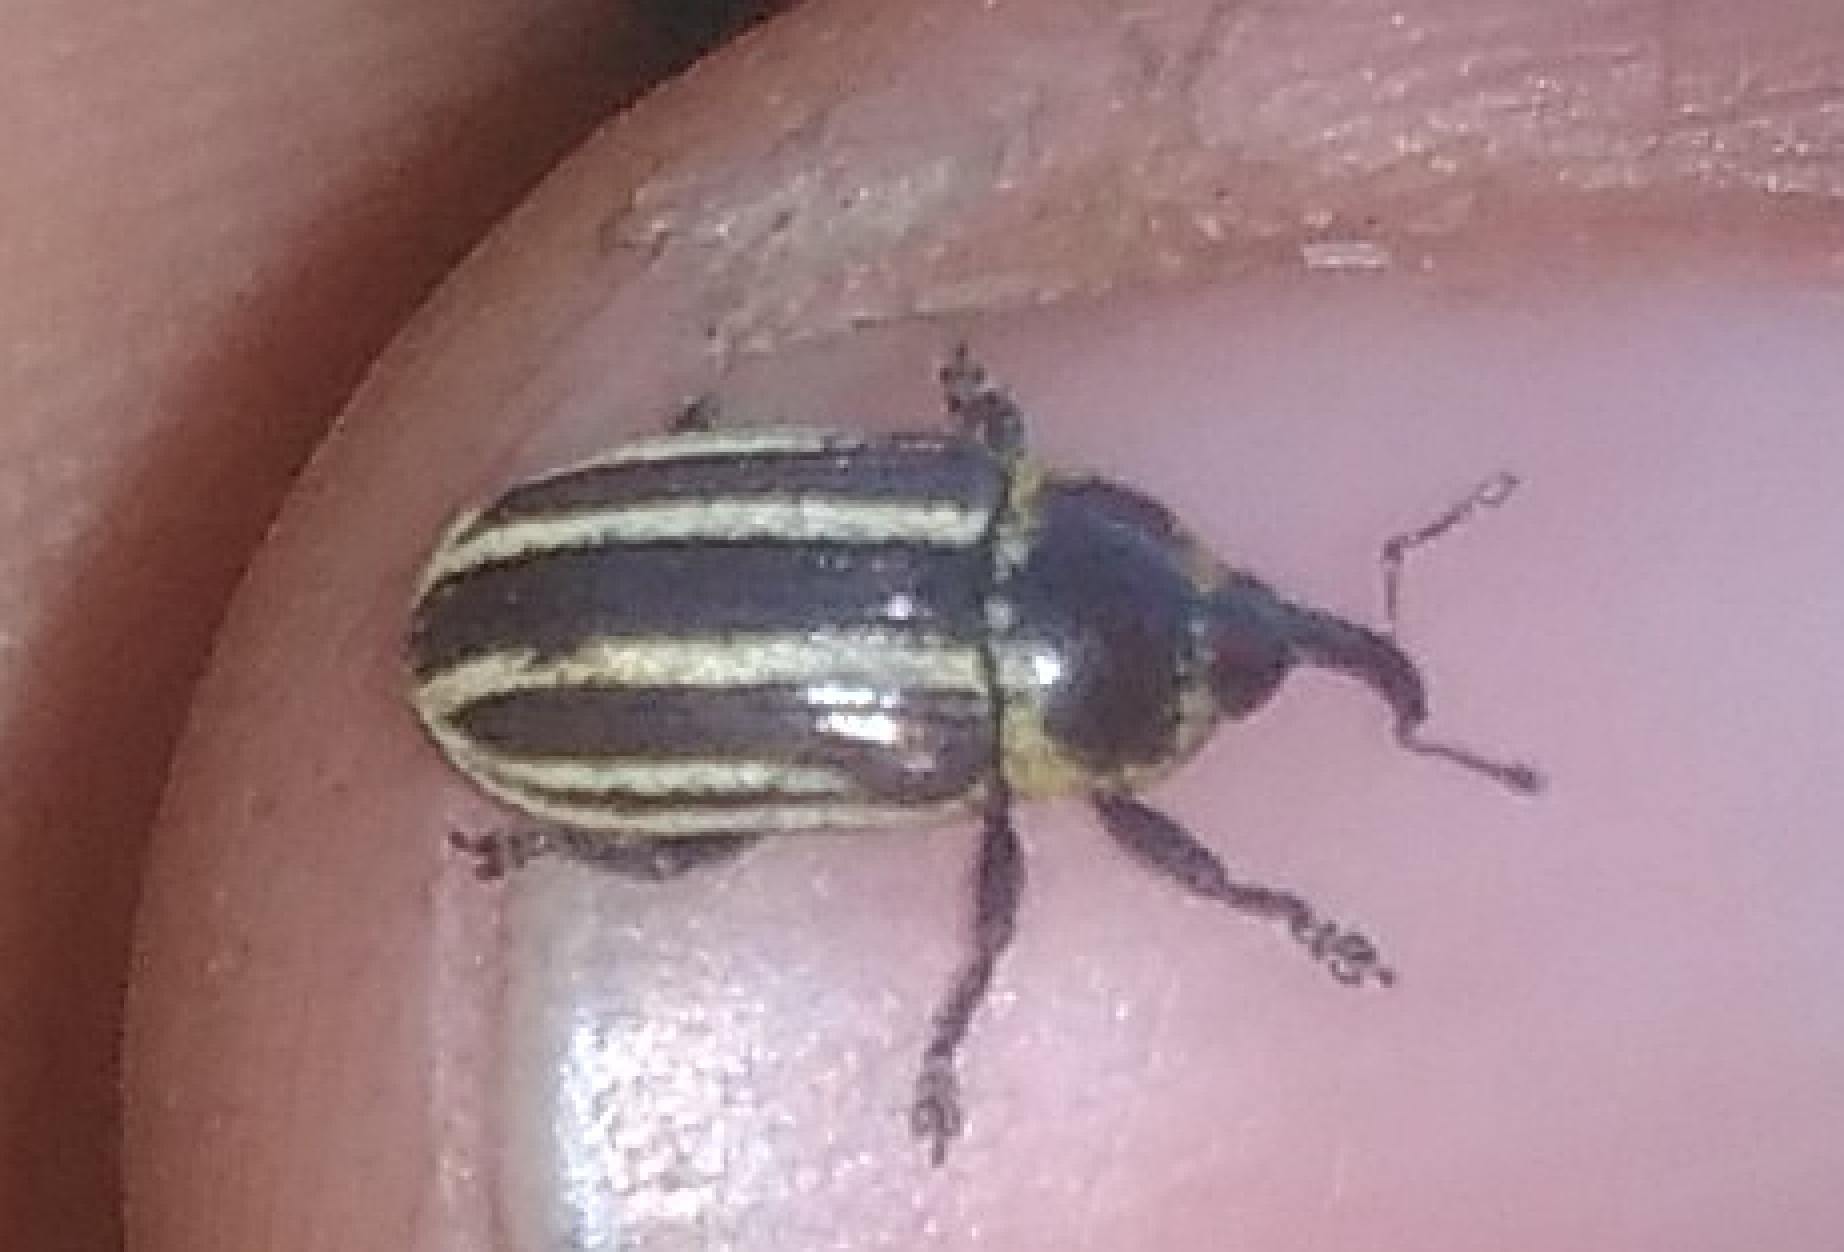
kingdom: Animalia
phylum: Arthropoda
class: Insecta
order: Coleoptera
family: Curculionidae
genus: Demoda
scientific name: Demoda vittata
